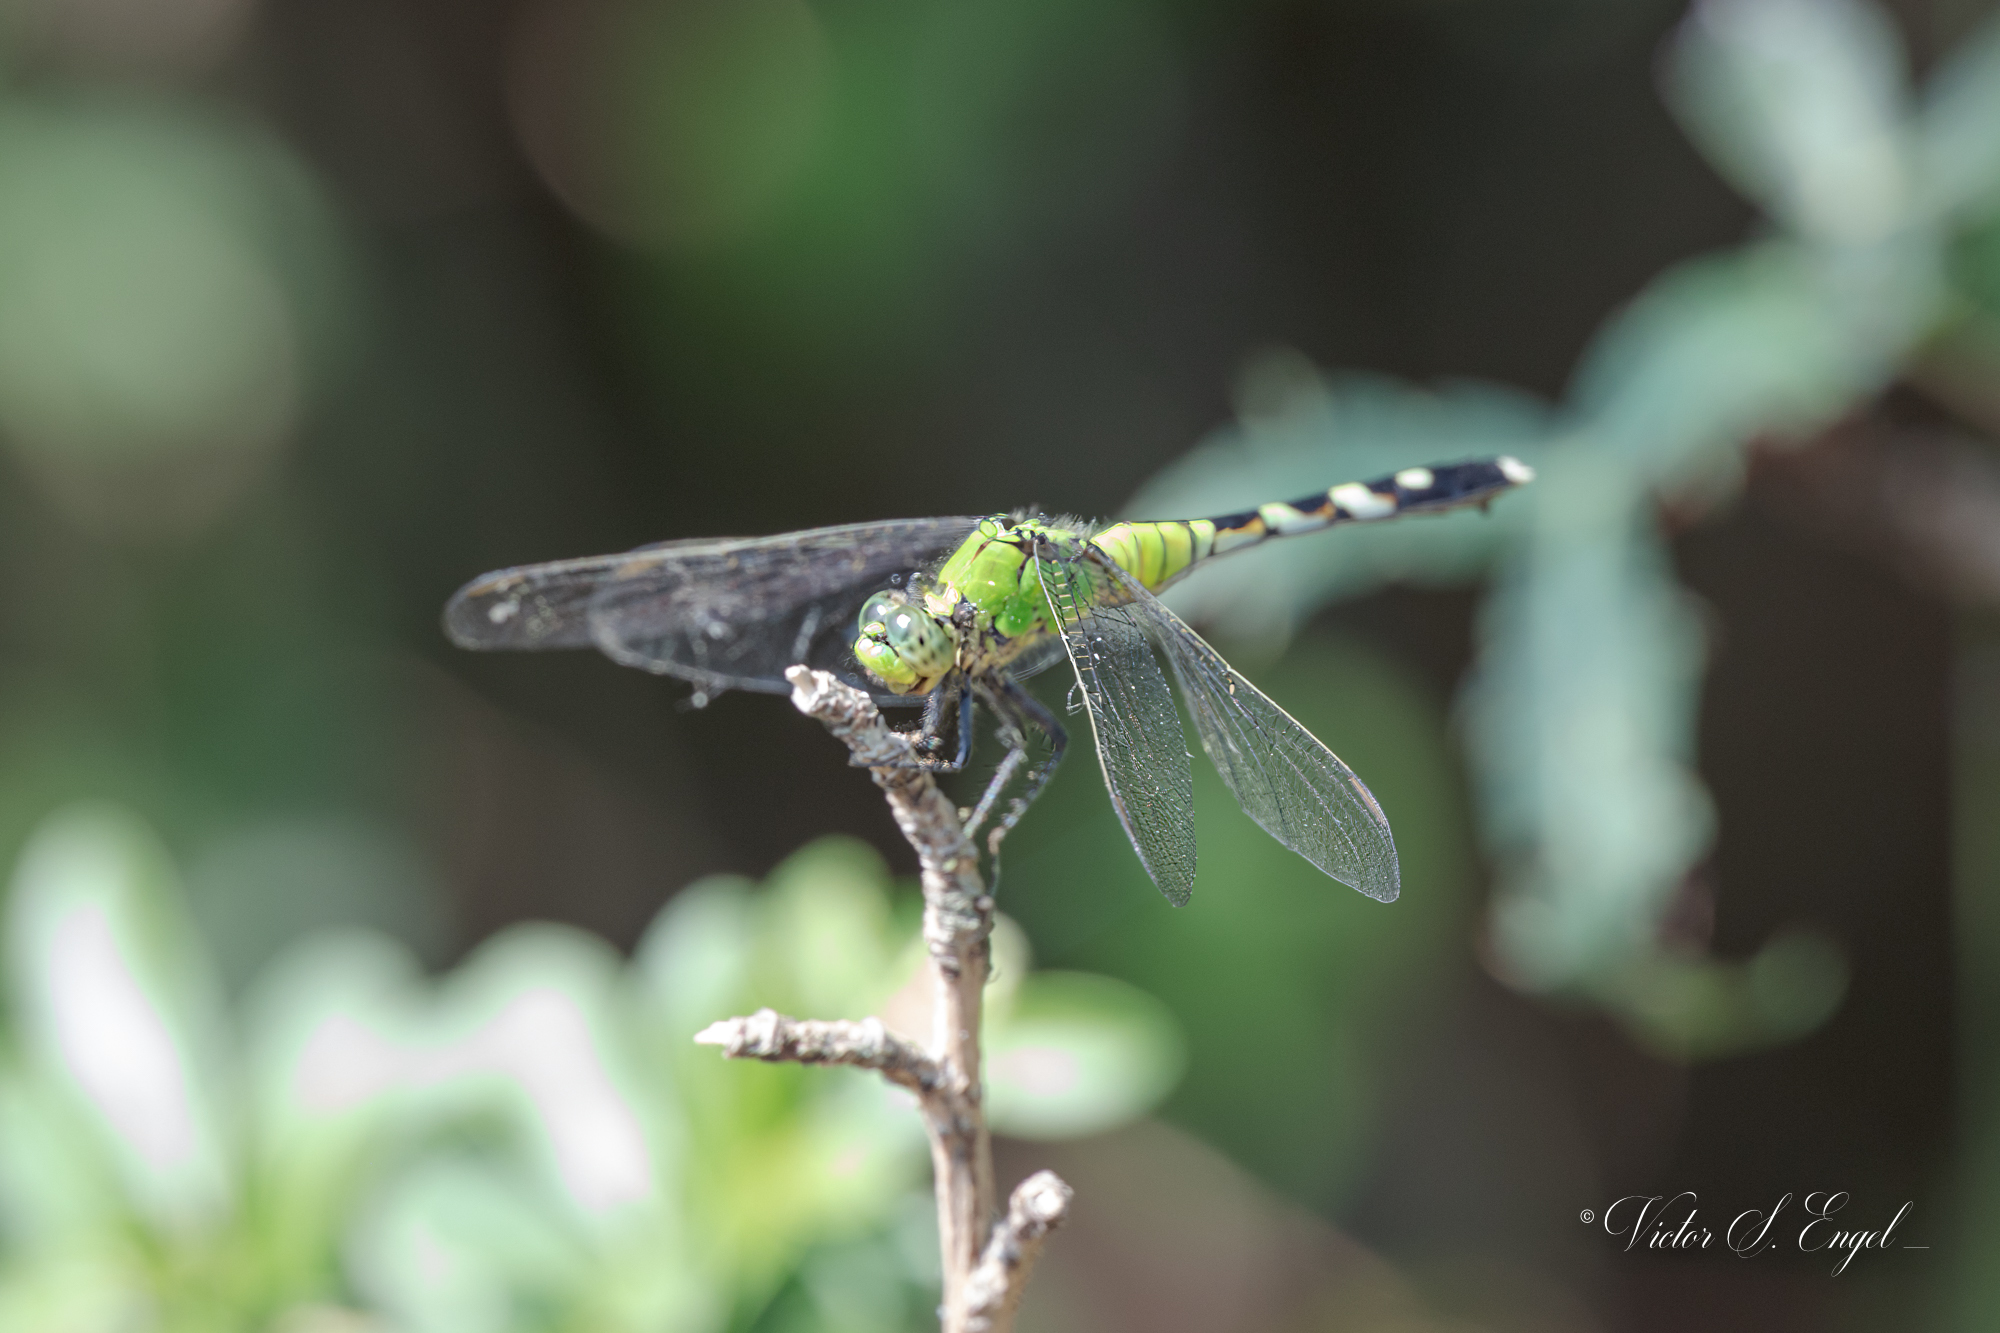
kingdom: Animalia
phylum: Arthropoda
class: Insecta
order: Odonata
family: Libellulidae
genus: Erythemis
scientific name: Erythemis simplicicollis
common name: Eastern pondhawk
